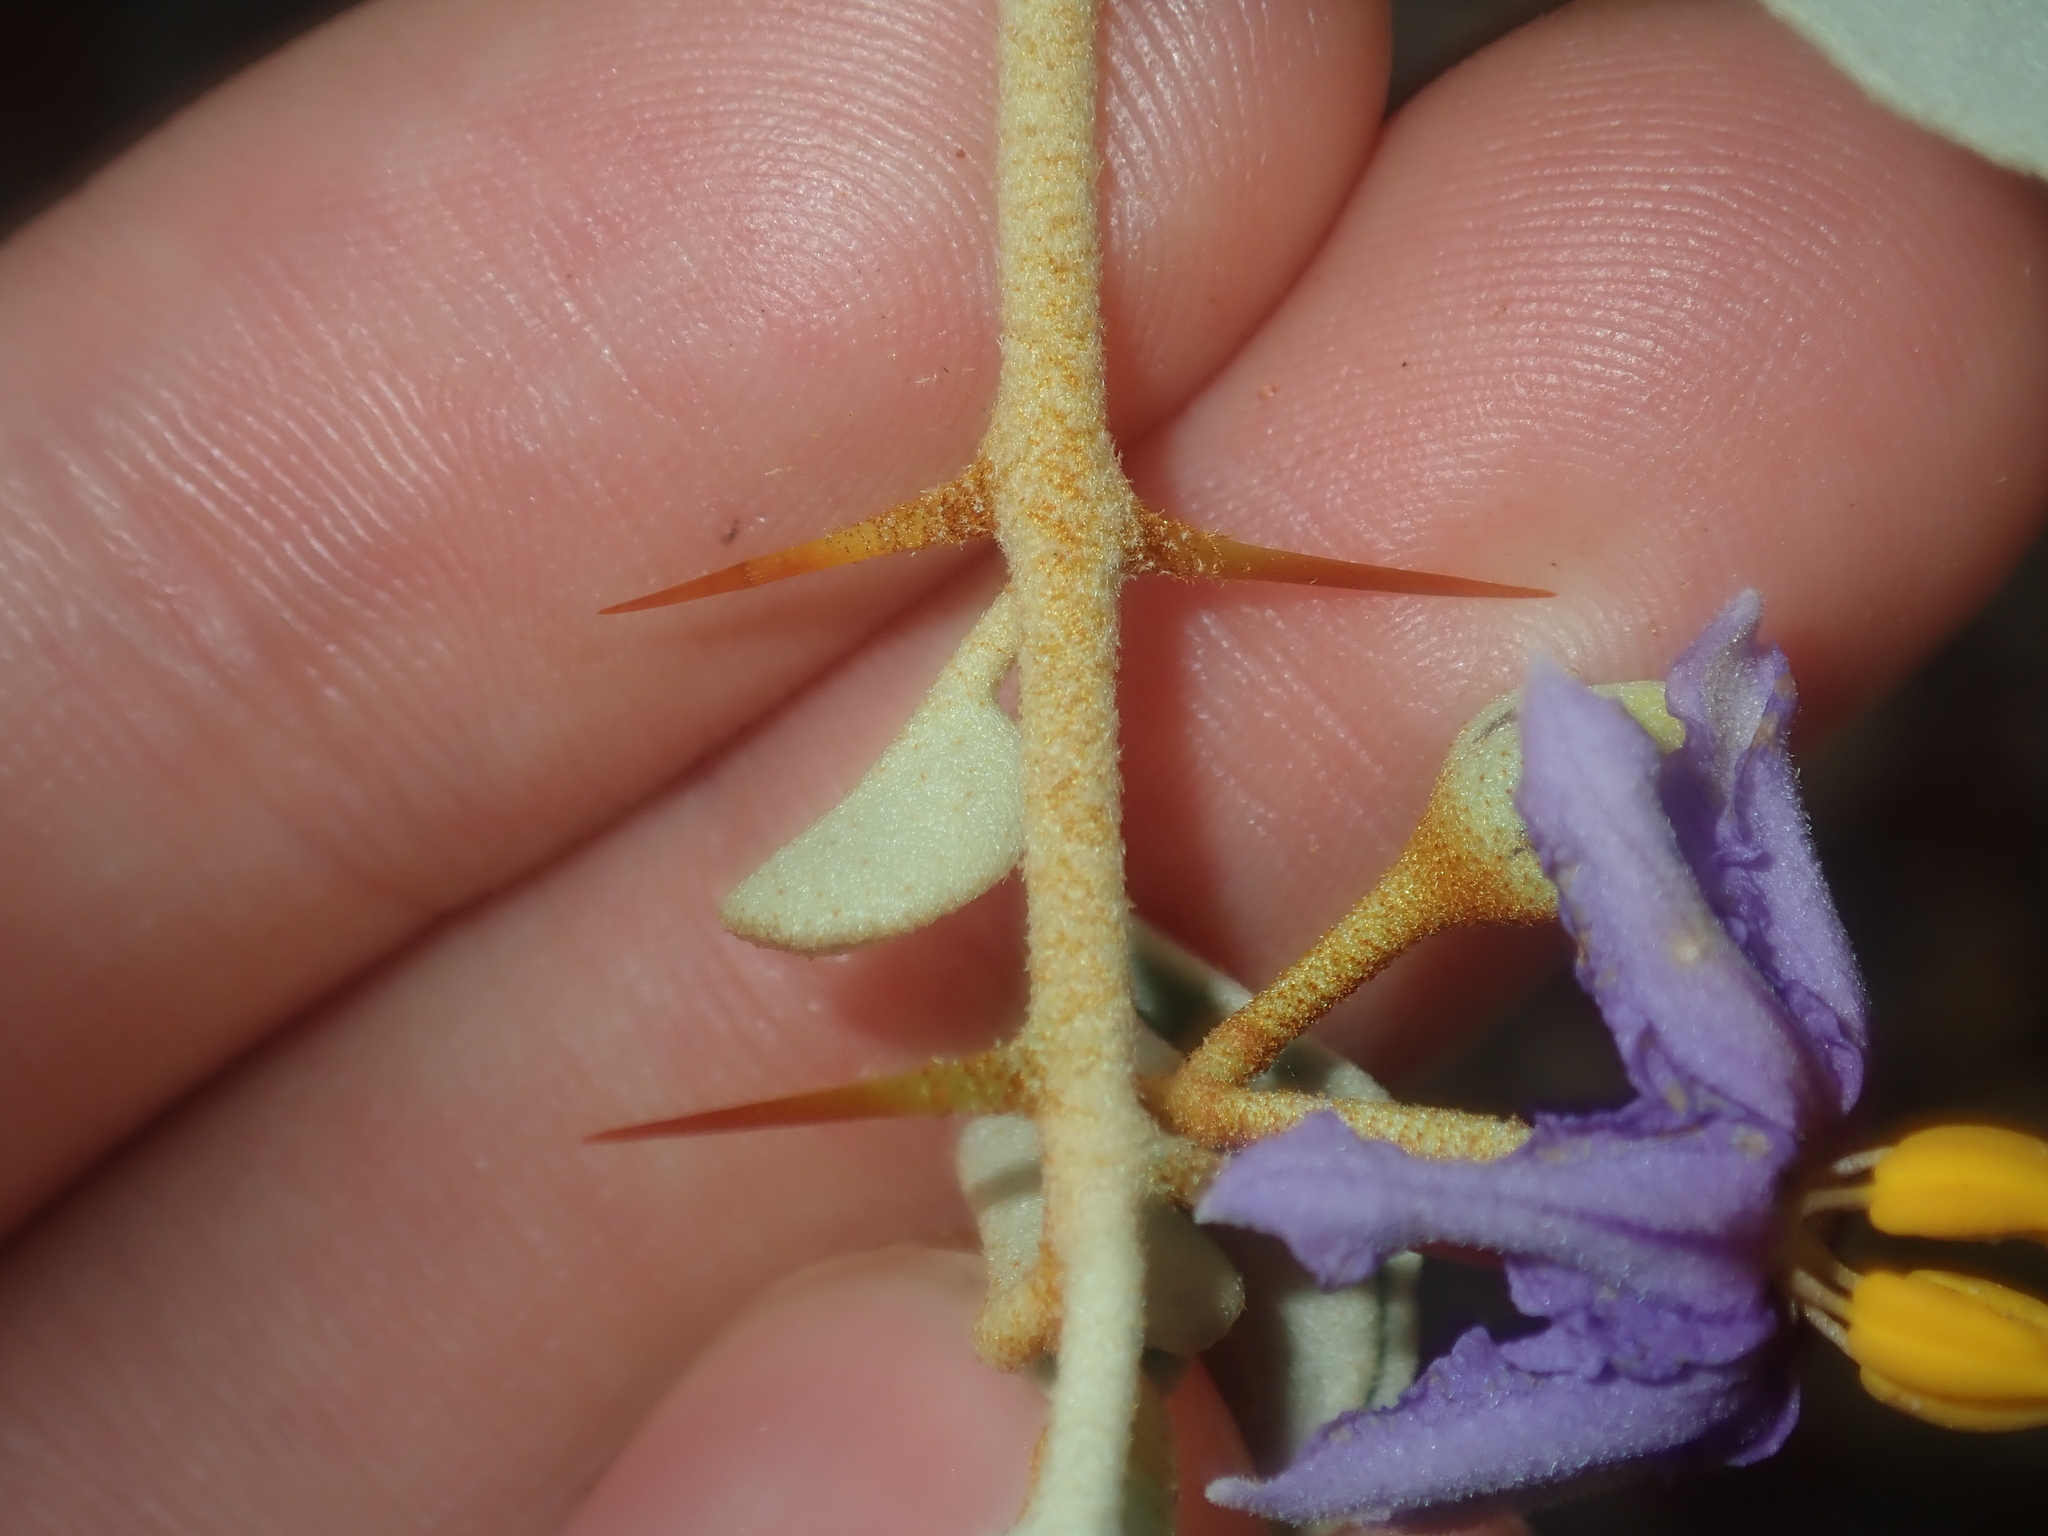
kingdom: Plantae
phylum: Tracheophyta
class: Magnoliopsida
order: Solanales
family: Solanaceae
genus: Solanum
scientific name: Solanum orbiculatum
